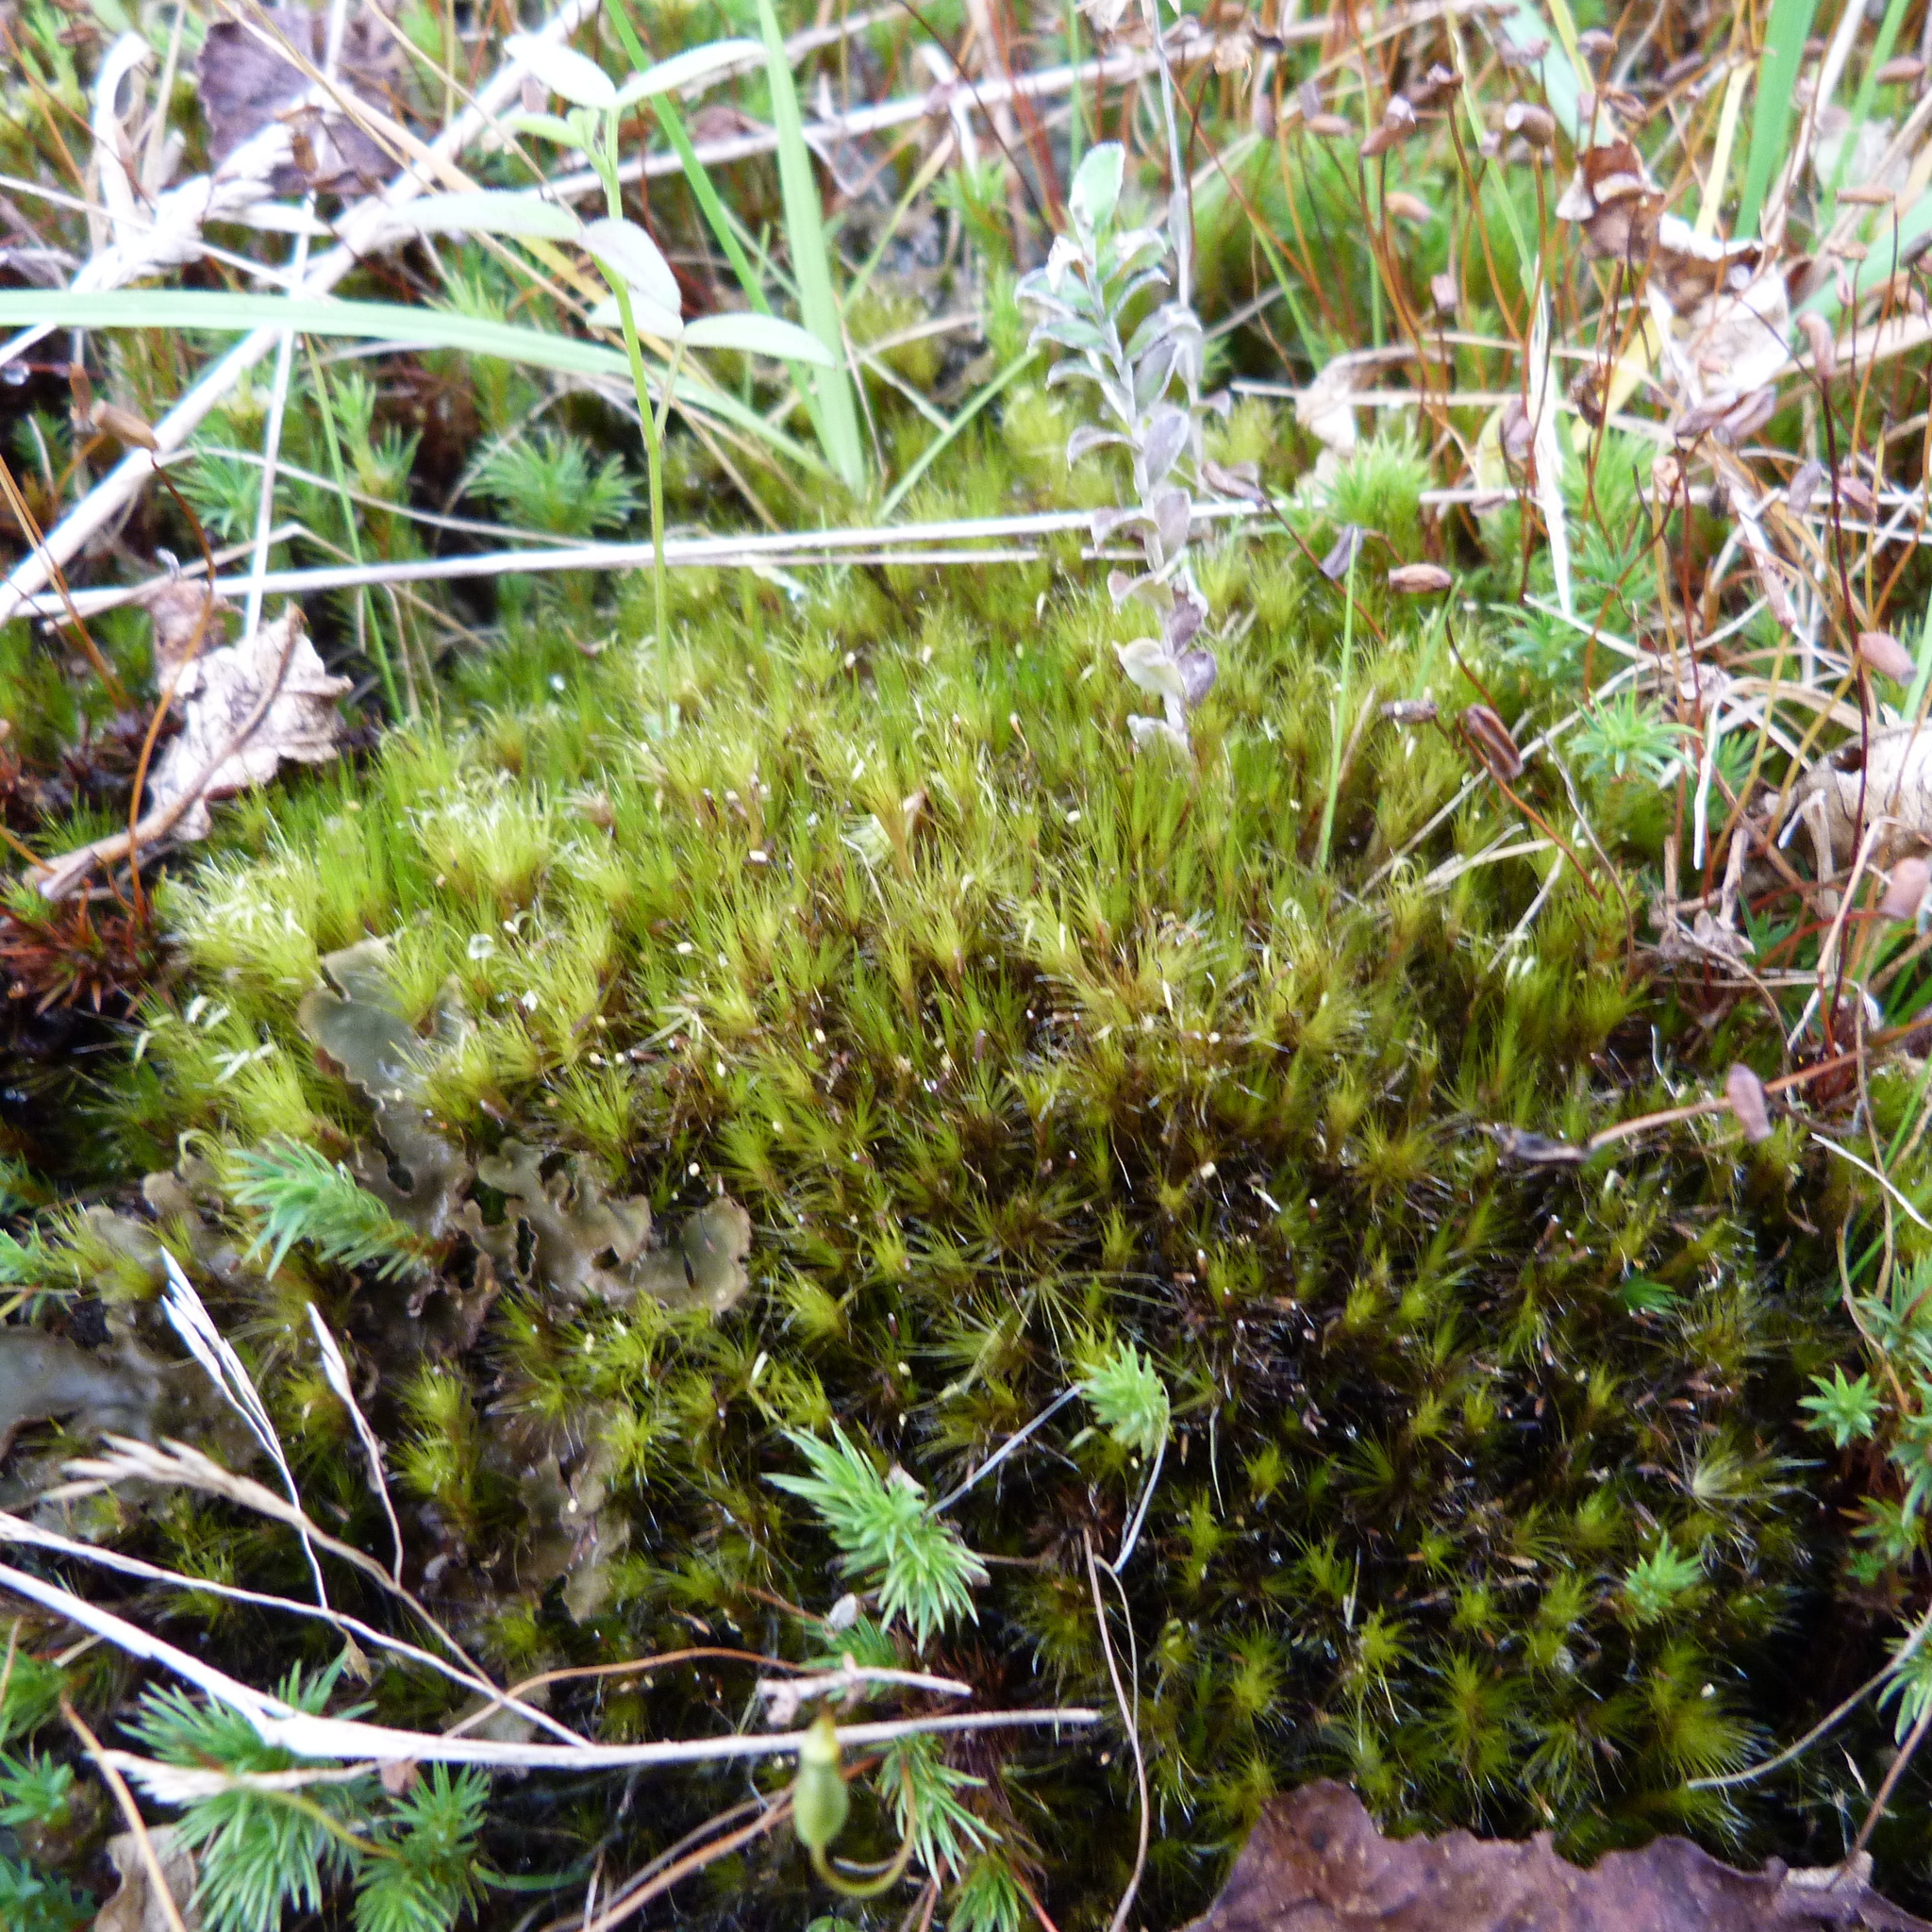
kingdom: Plantae
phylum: Bryophyta
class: Bryopsida
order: Dicranales
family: Leucobryaceae
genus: Campylopus
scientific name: Campylopus clavatus
